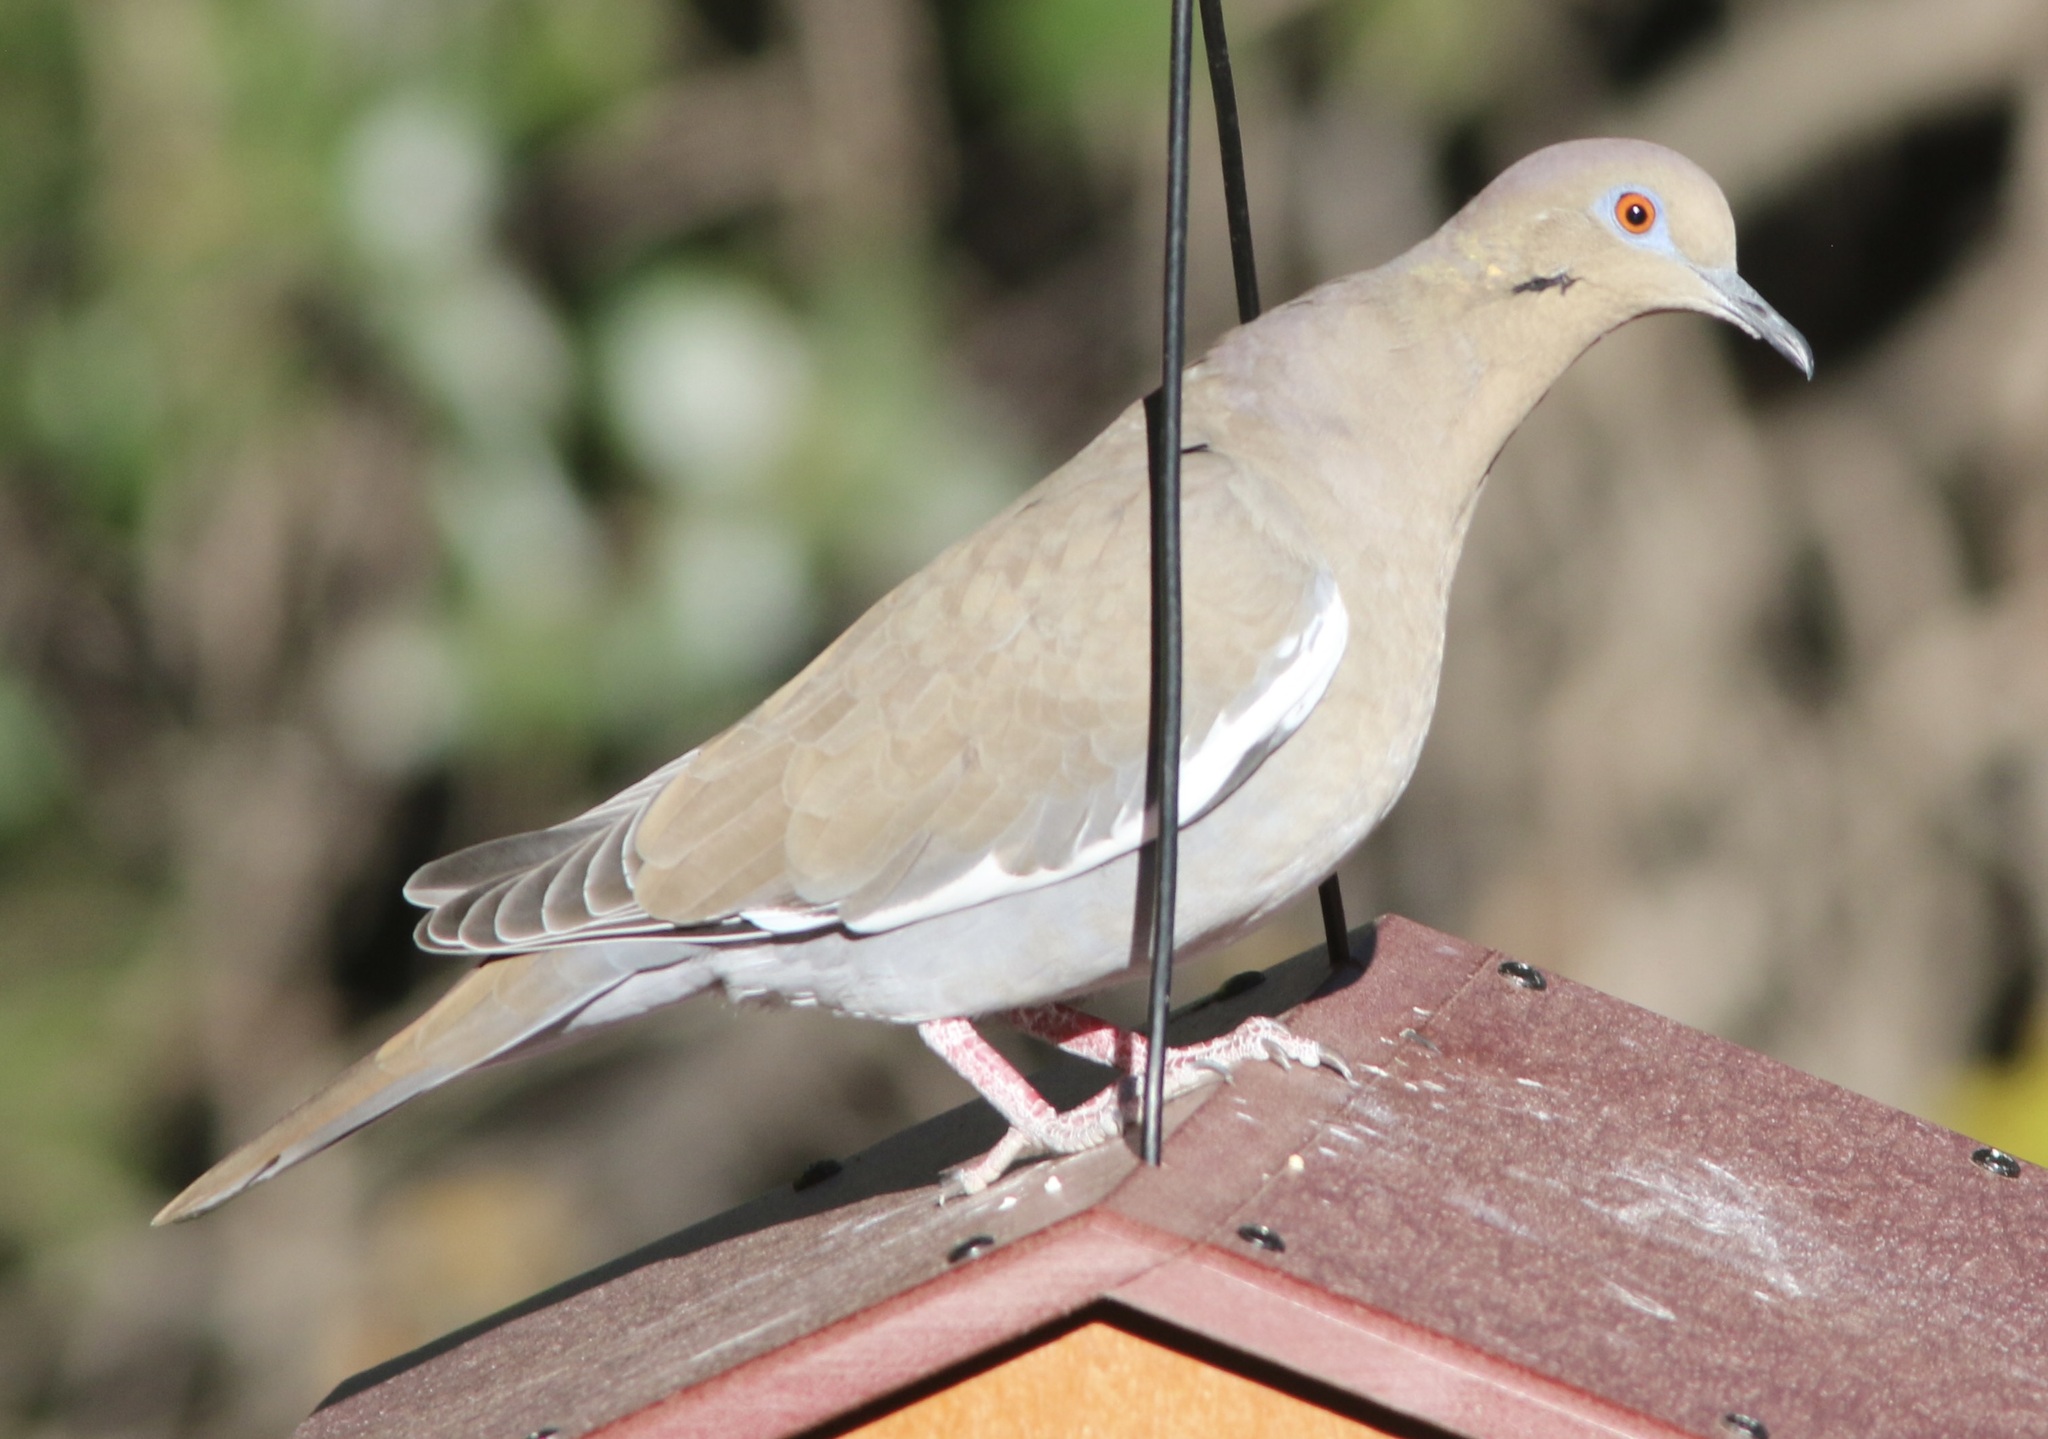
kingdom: Animalia
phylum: Chordata
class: Aves
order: Columbiformes
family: Columbidae
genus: Zenaida
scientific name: Zenaida asiatica
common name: White-winged dove
